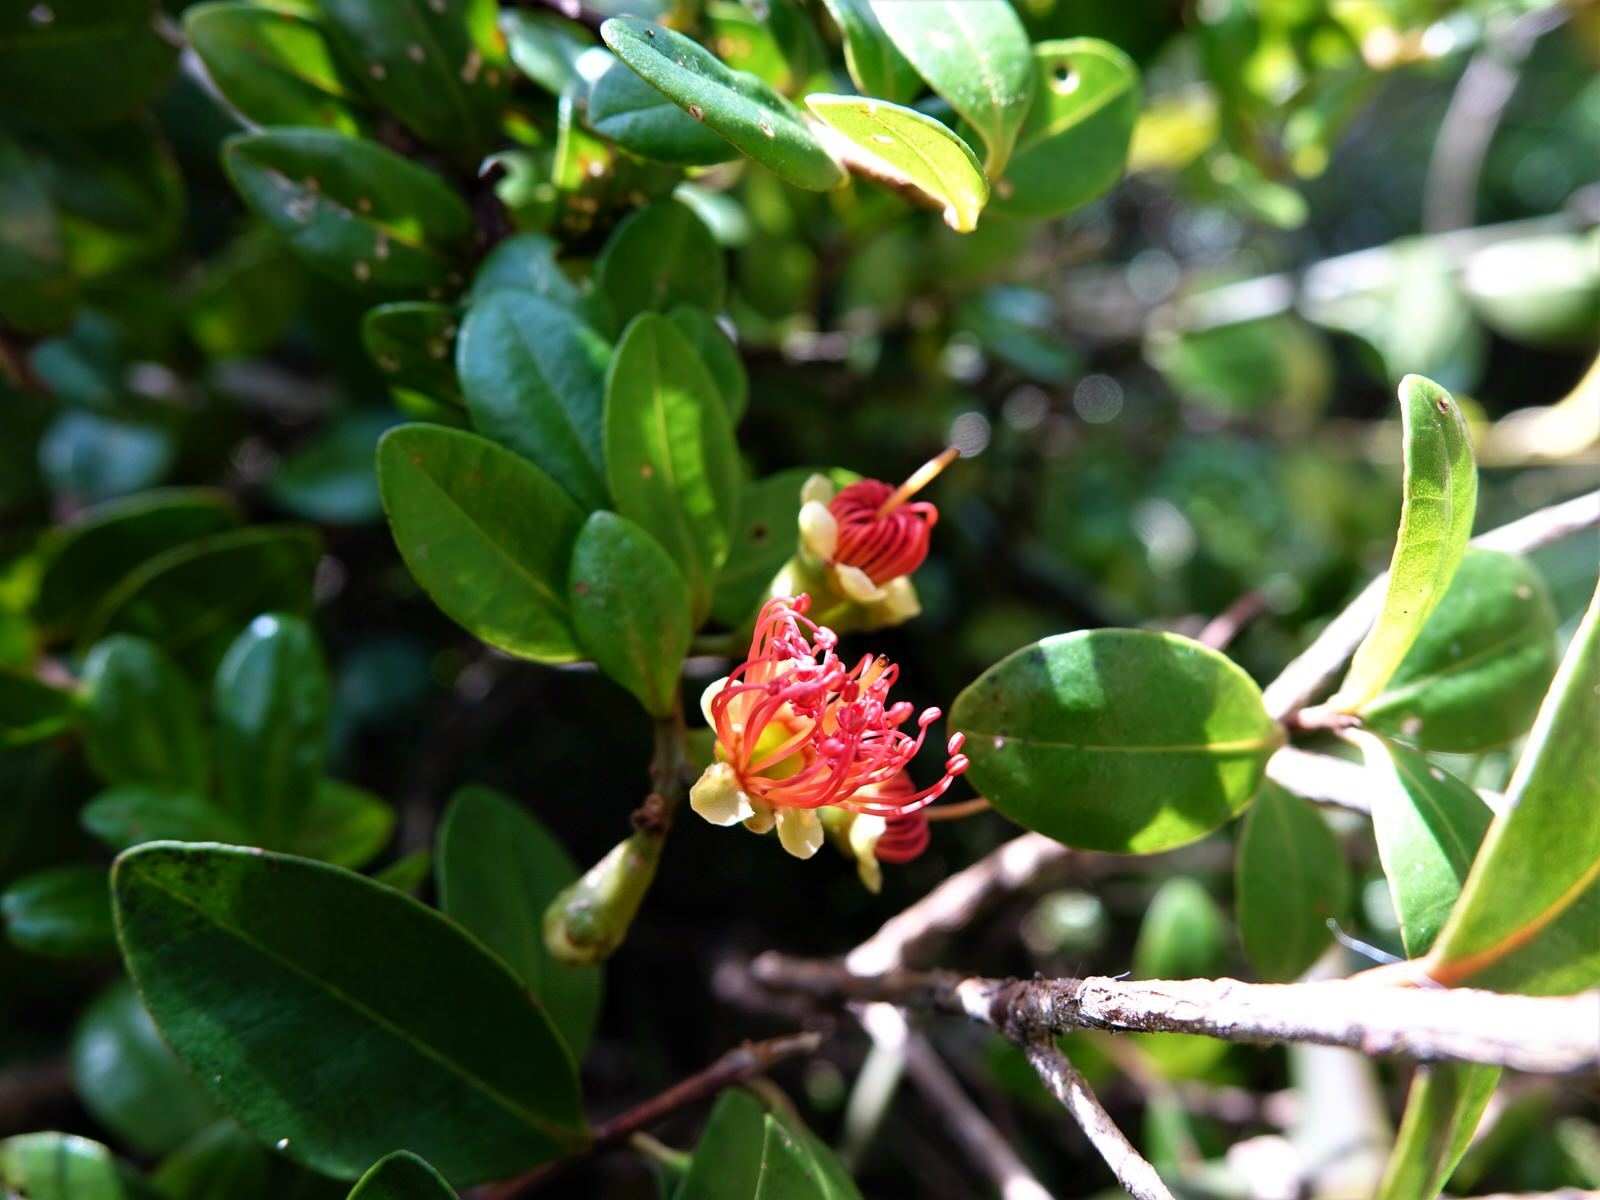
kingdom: Plantae
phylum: Tracheophyta
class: Magnoliopsida
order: Myrtales
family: Myrtaceae
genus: Metrosideros
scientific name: Metrosideros fulgens
